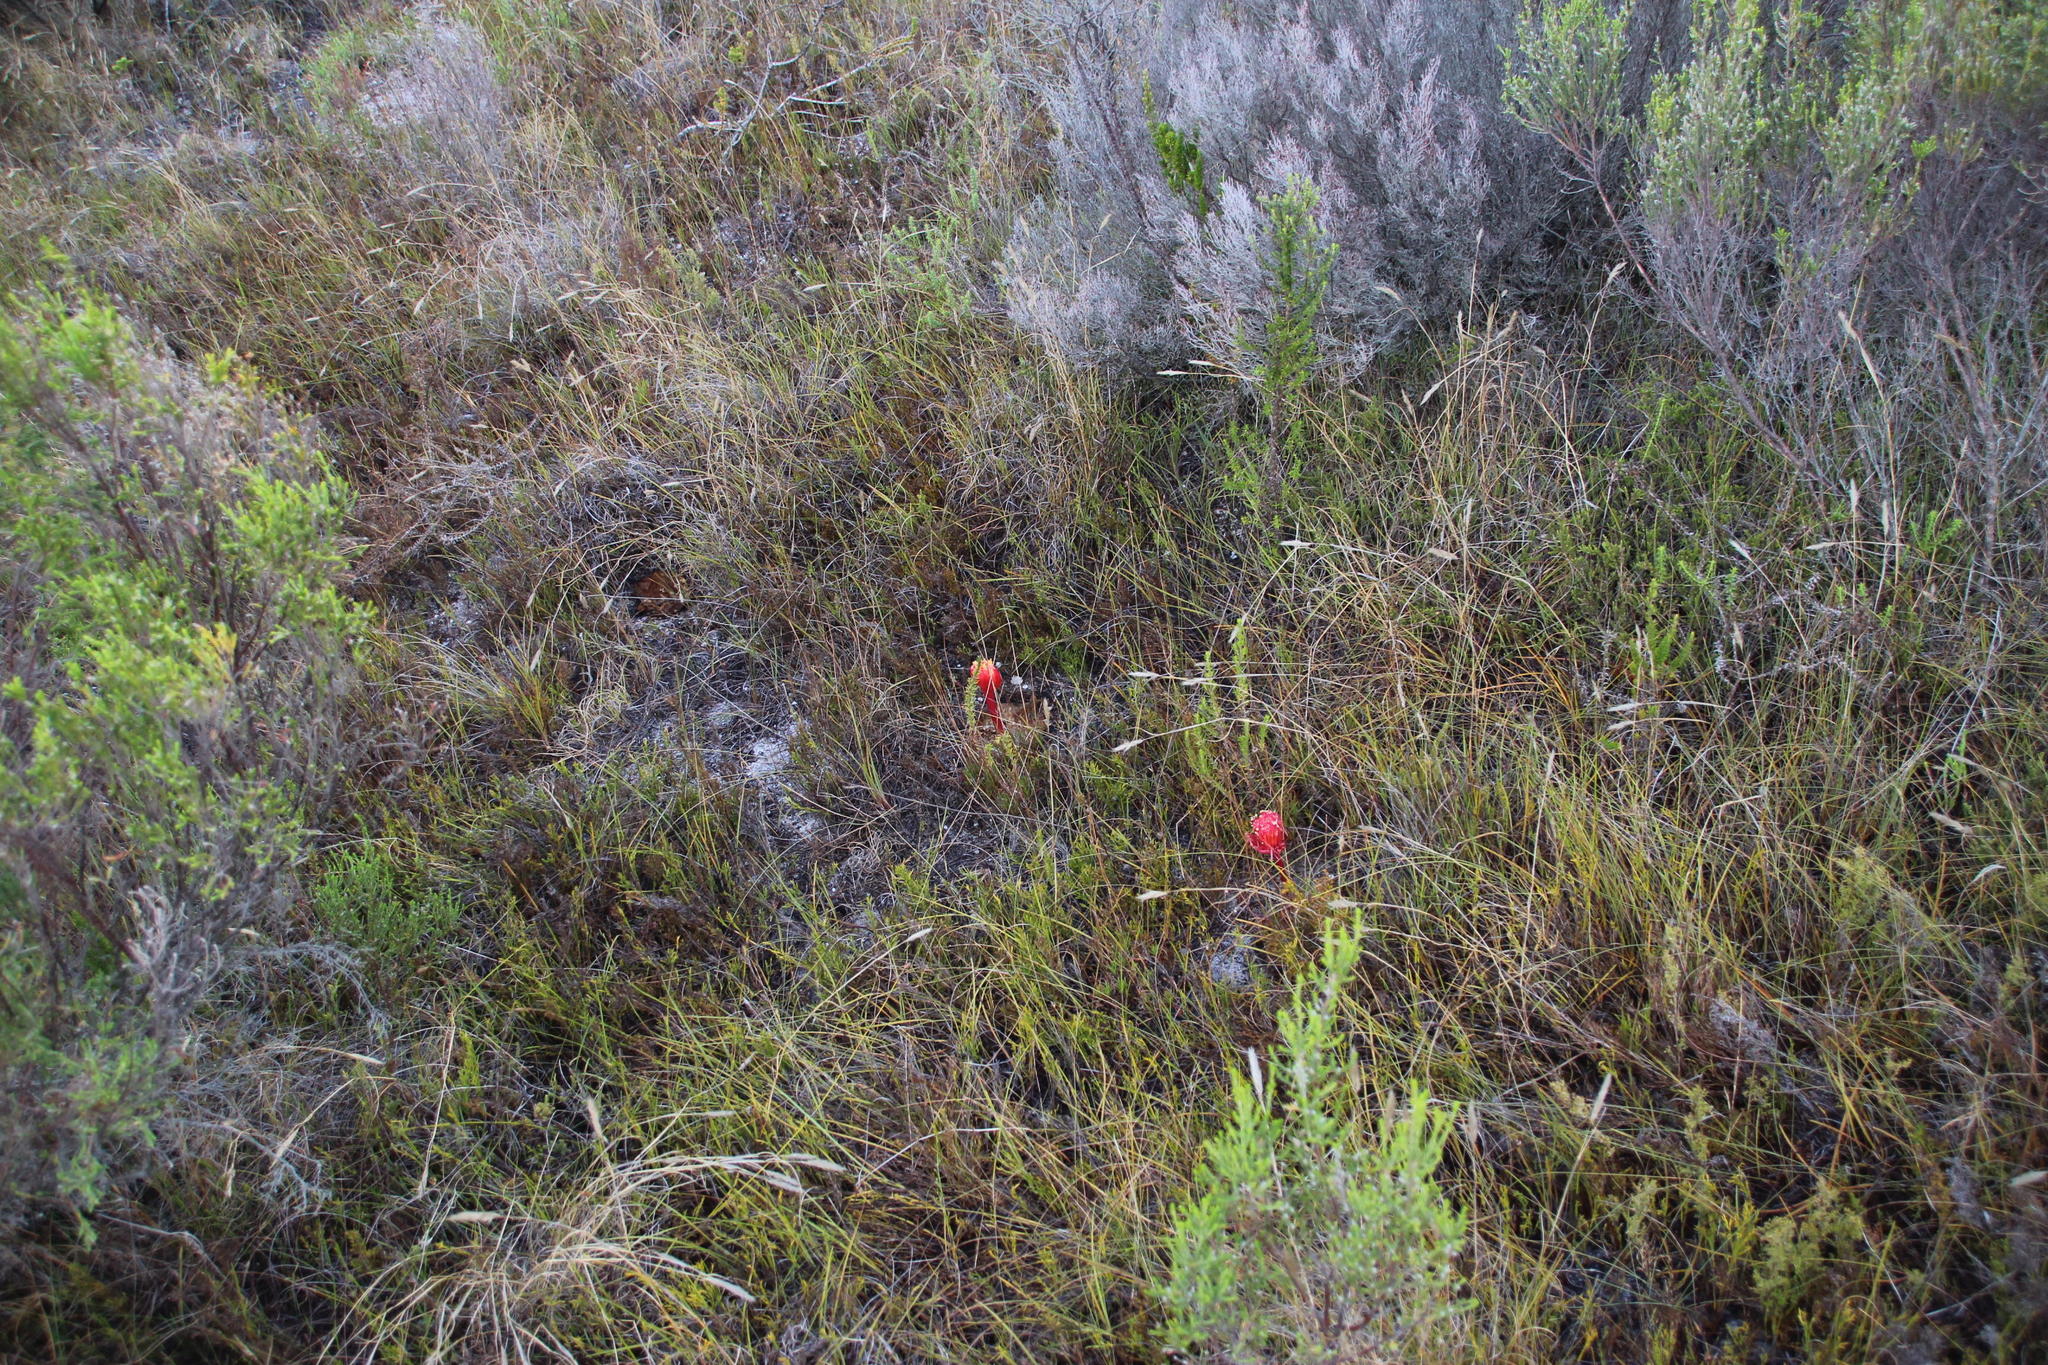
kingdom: Plantae
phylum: Tracheophyta
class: Liliopsida
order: Asparagales
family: Amaryllidaceae
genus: Haemanthus
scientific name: Haemanthus sanguineus
